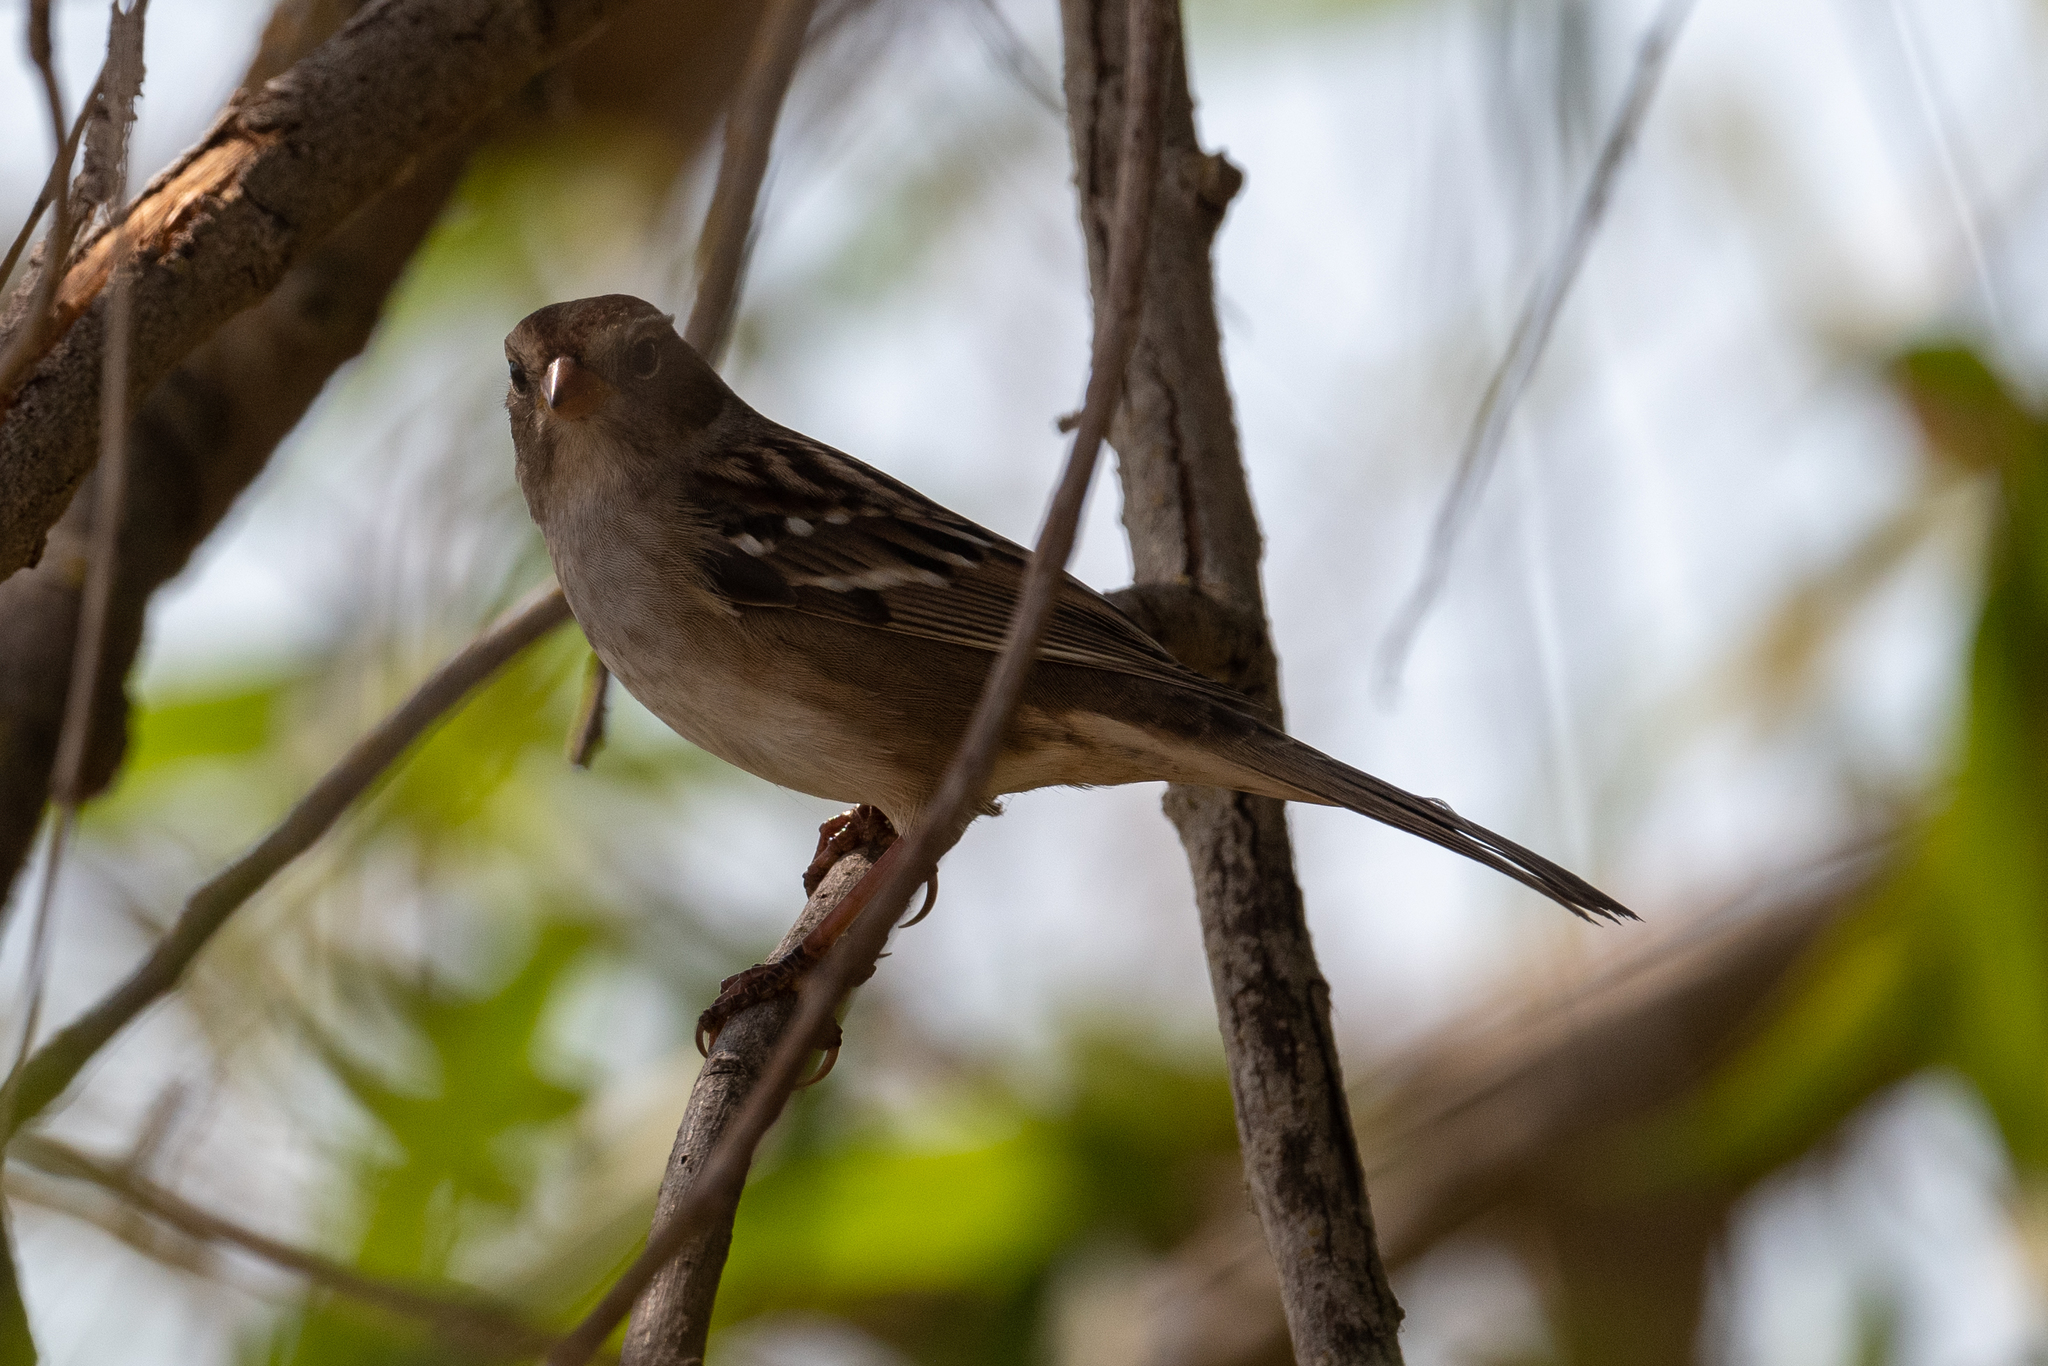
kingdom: Animalia
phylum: Chordata
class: Aves
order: Passeriformes
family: Passerellidae
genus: Zonotrichia
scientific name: Zonotrichia leucophrys
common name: White-crowned sparrow
